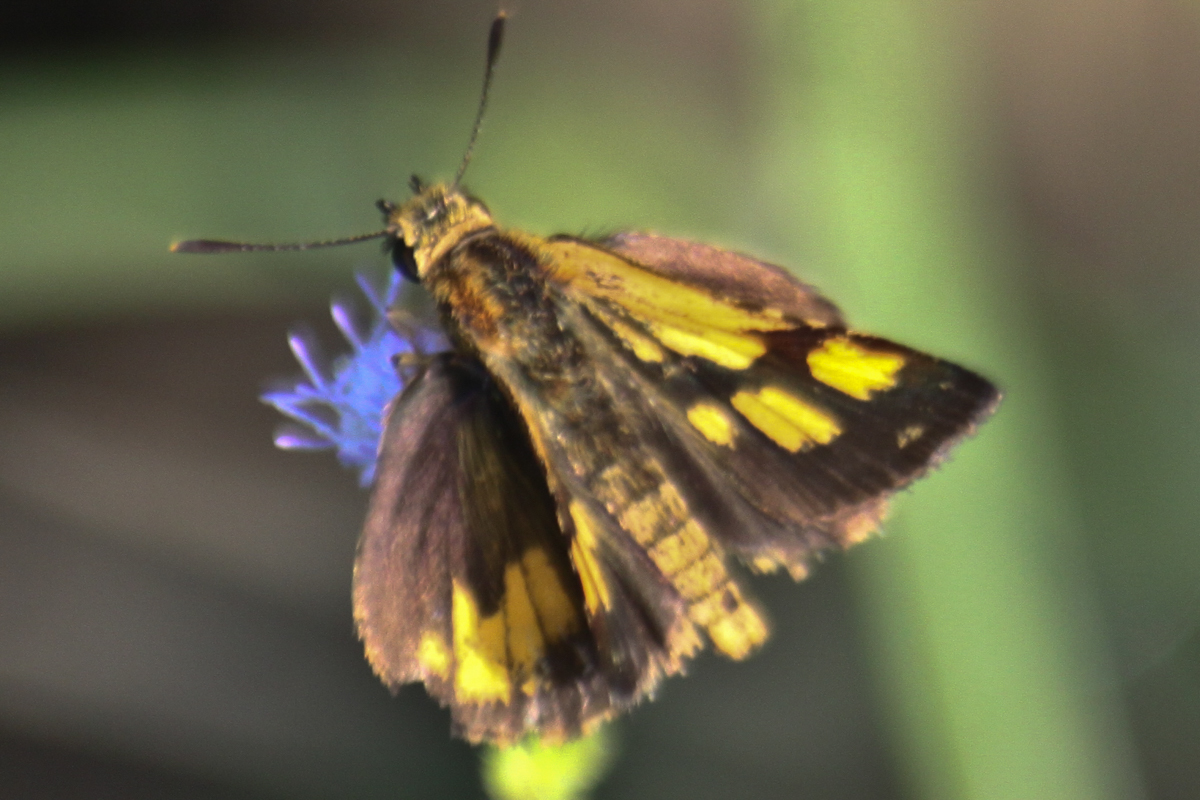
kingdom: Animalia
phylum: Arthropoda
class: Insecta
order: Lepidoptera
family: Hesperiidae
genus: Ampittia
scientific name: Ampittia dioscorides
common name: Common bush hopper
